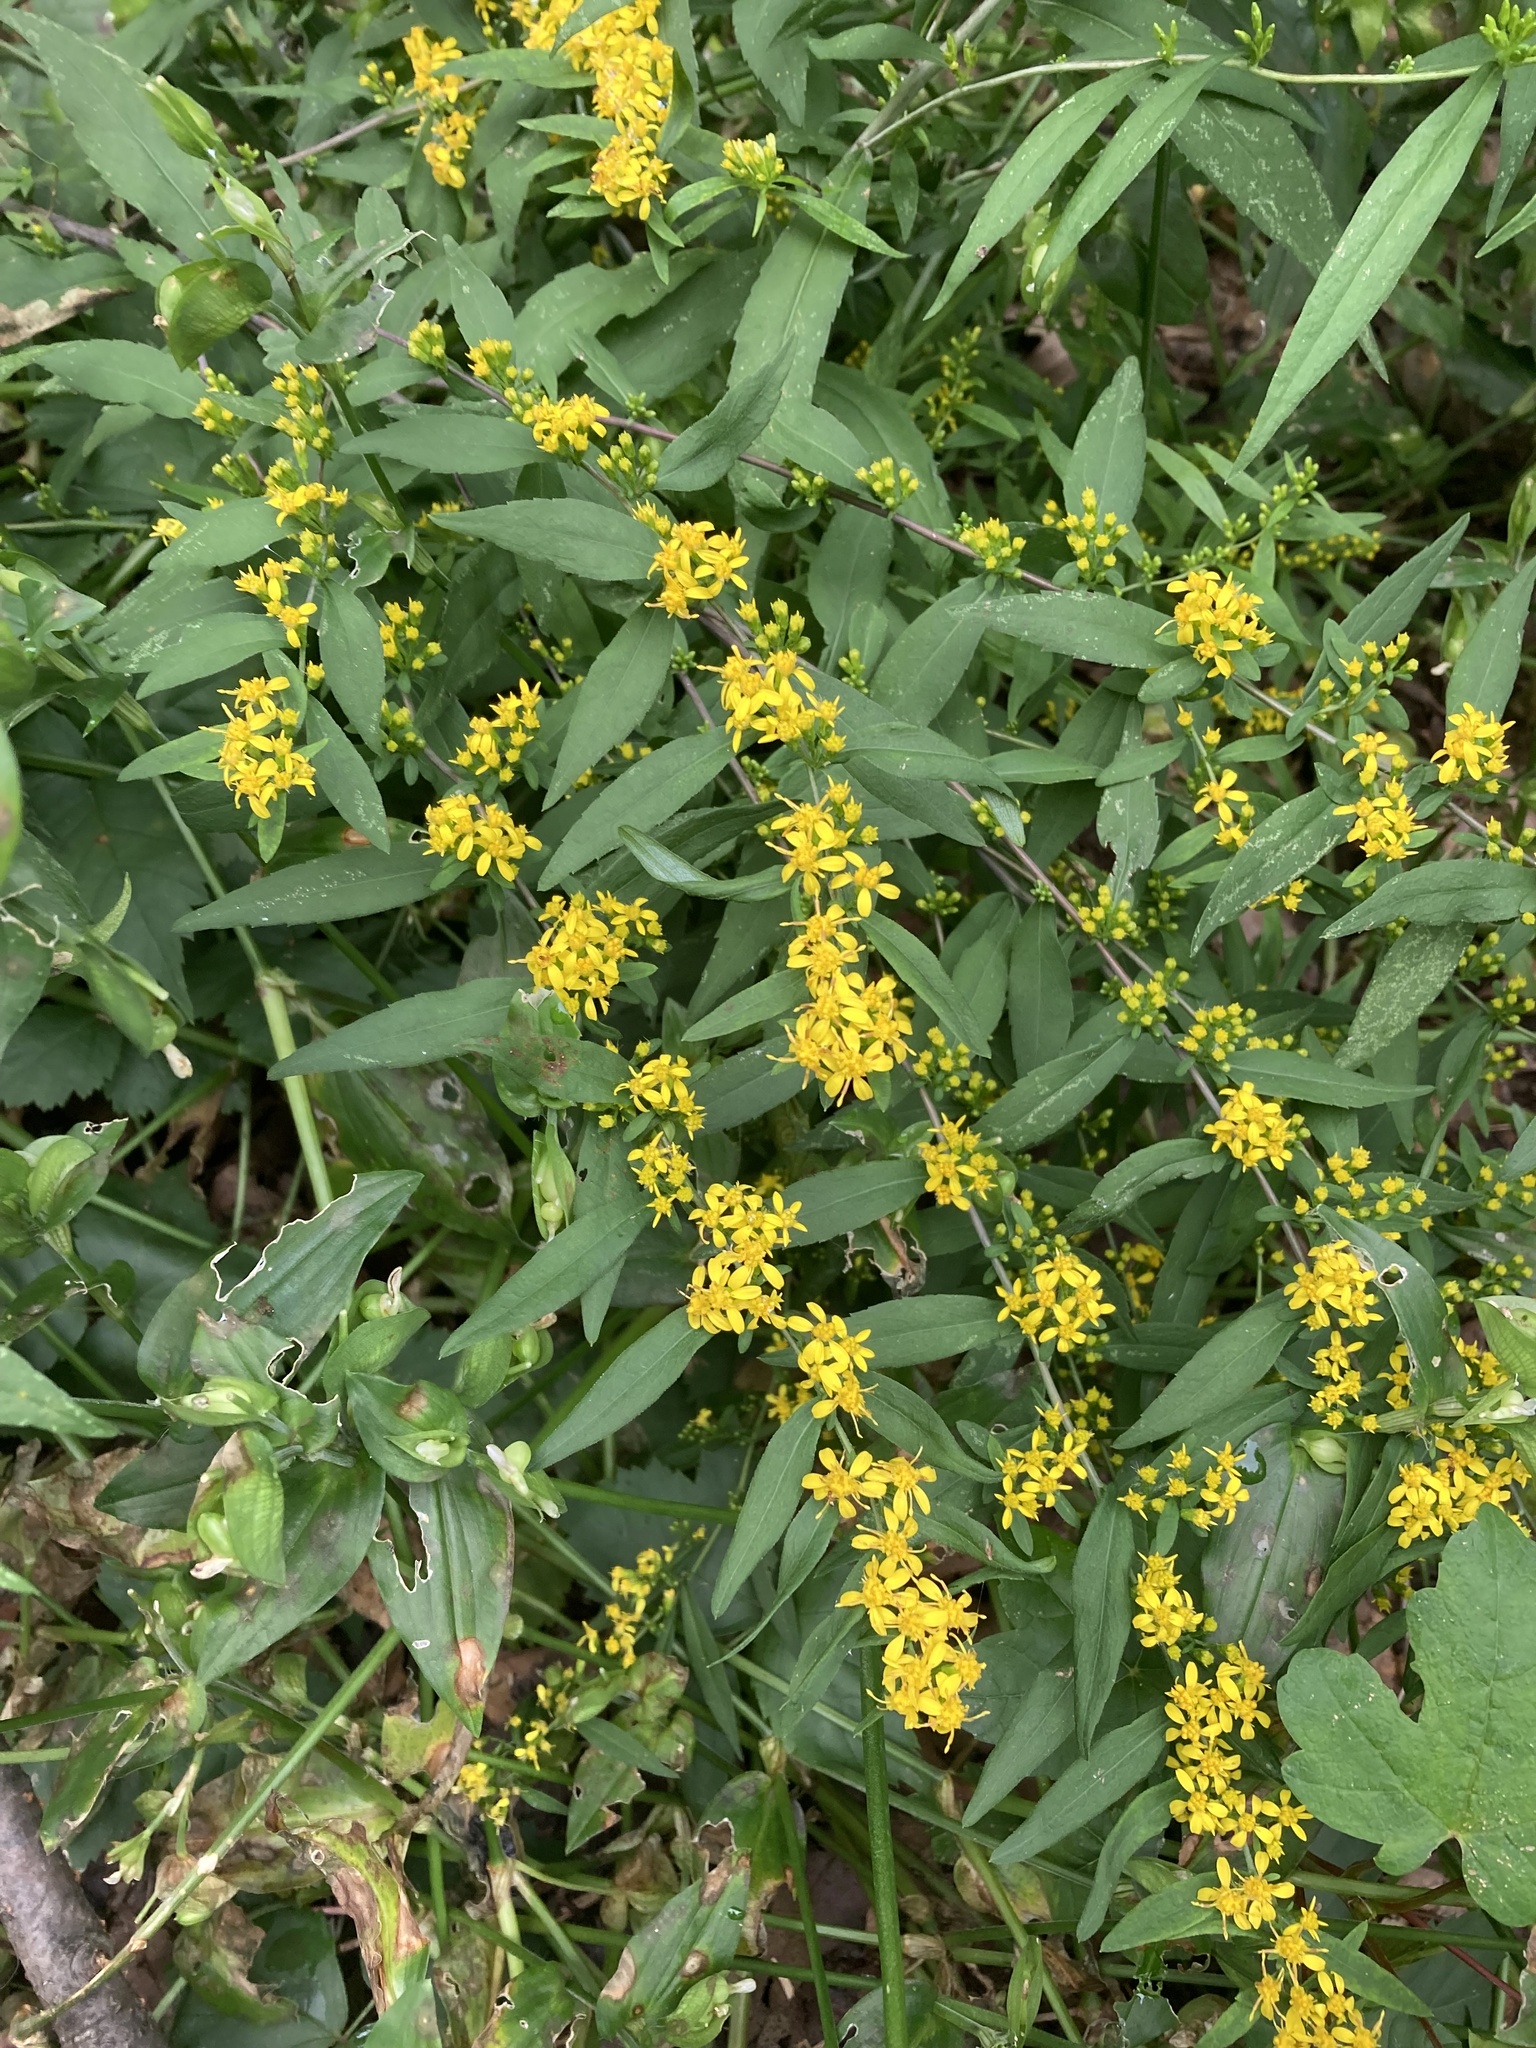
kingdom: Plantae
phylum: Tracheophyta
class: Magnoliopsida
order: Asterales
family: Asteraceae
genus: Solidago
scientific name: Solidago caesia
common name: Woodland goldenrod
